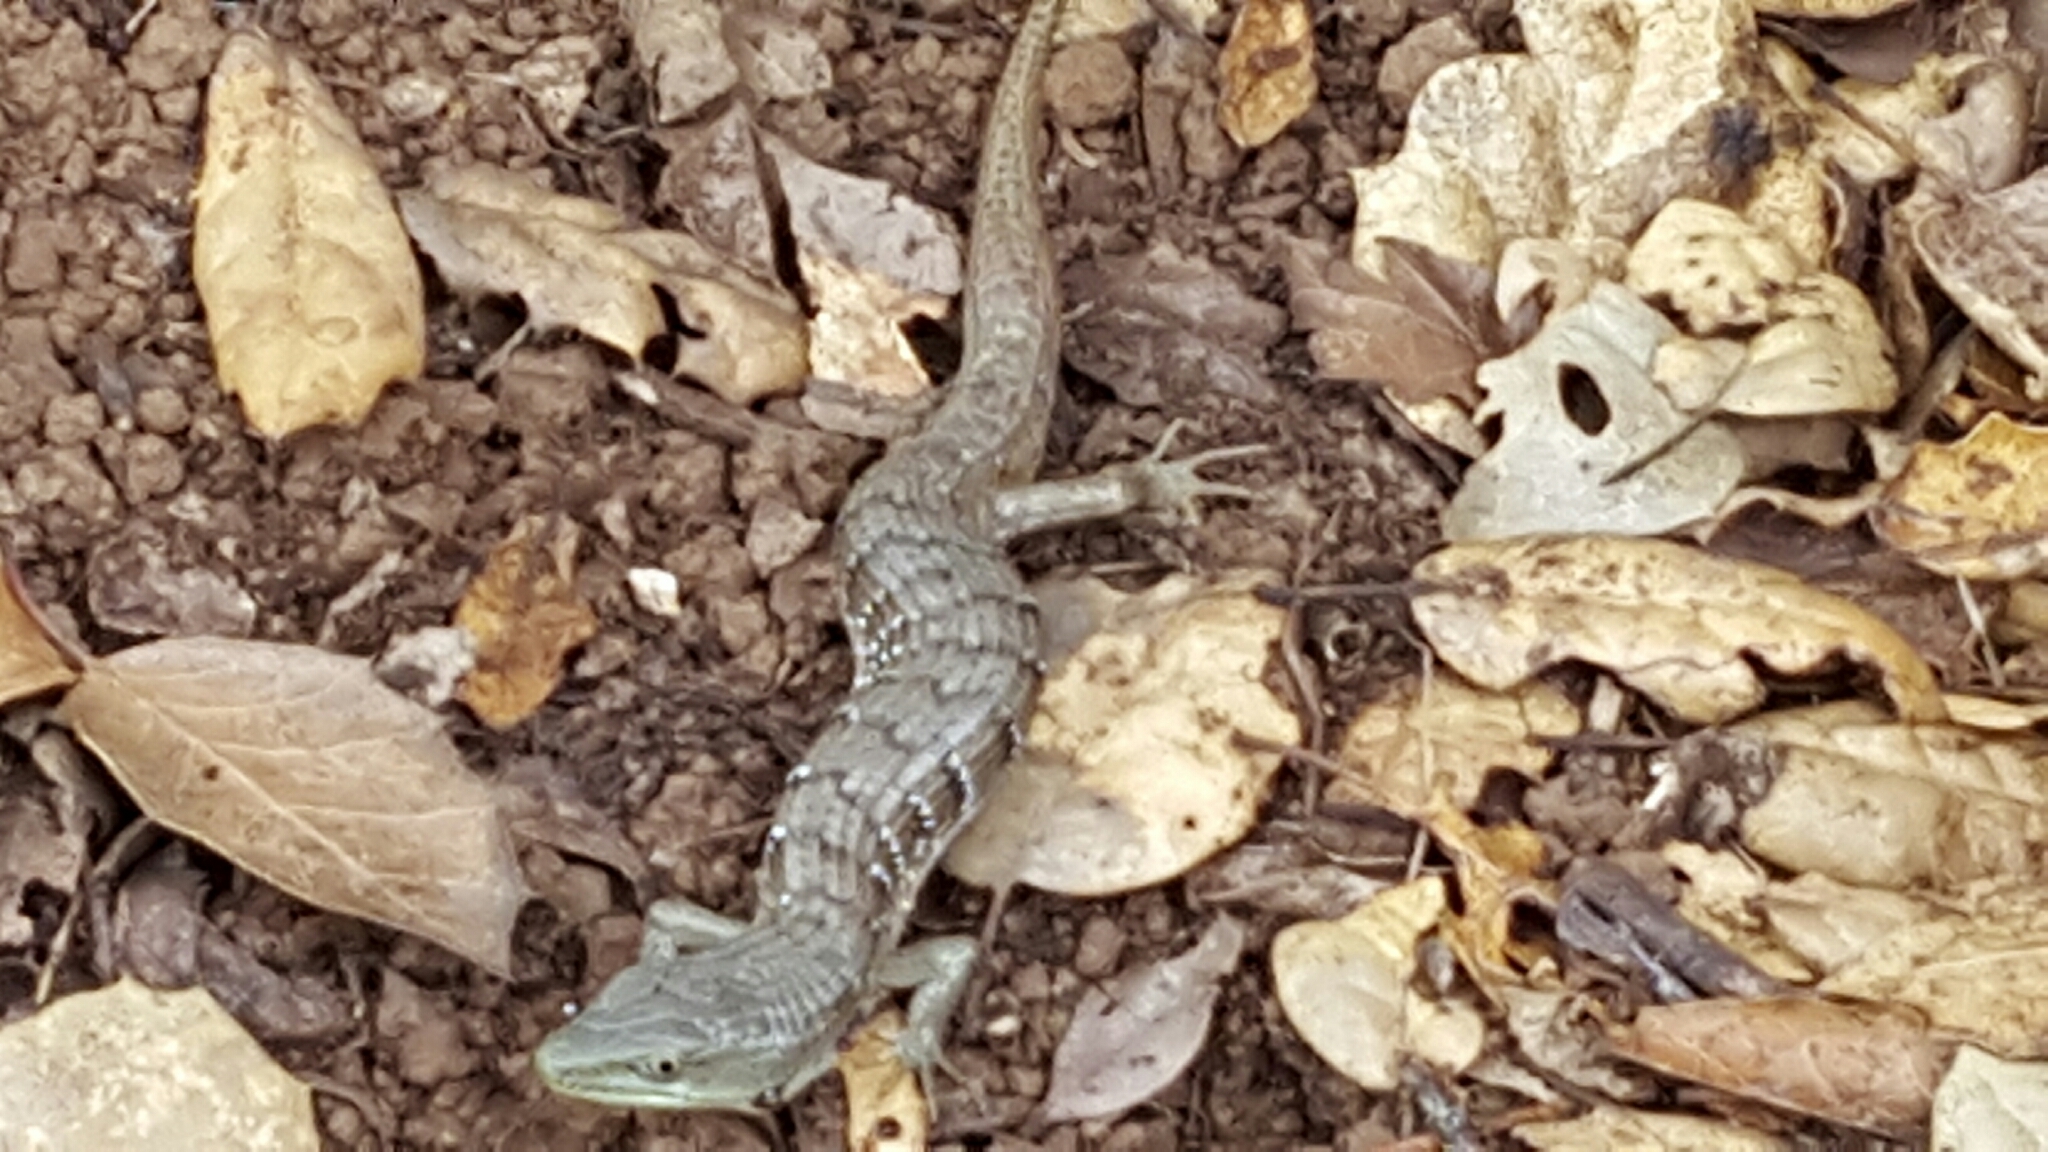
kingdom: Animalia
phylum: Chordata
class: Squamata
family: Anguidae
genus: Elgaria
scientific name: Elgaria multicarinata
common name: Southern alligator lizard
